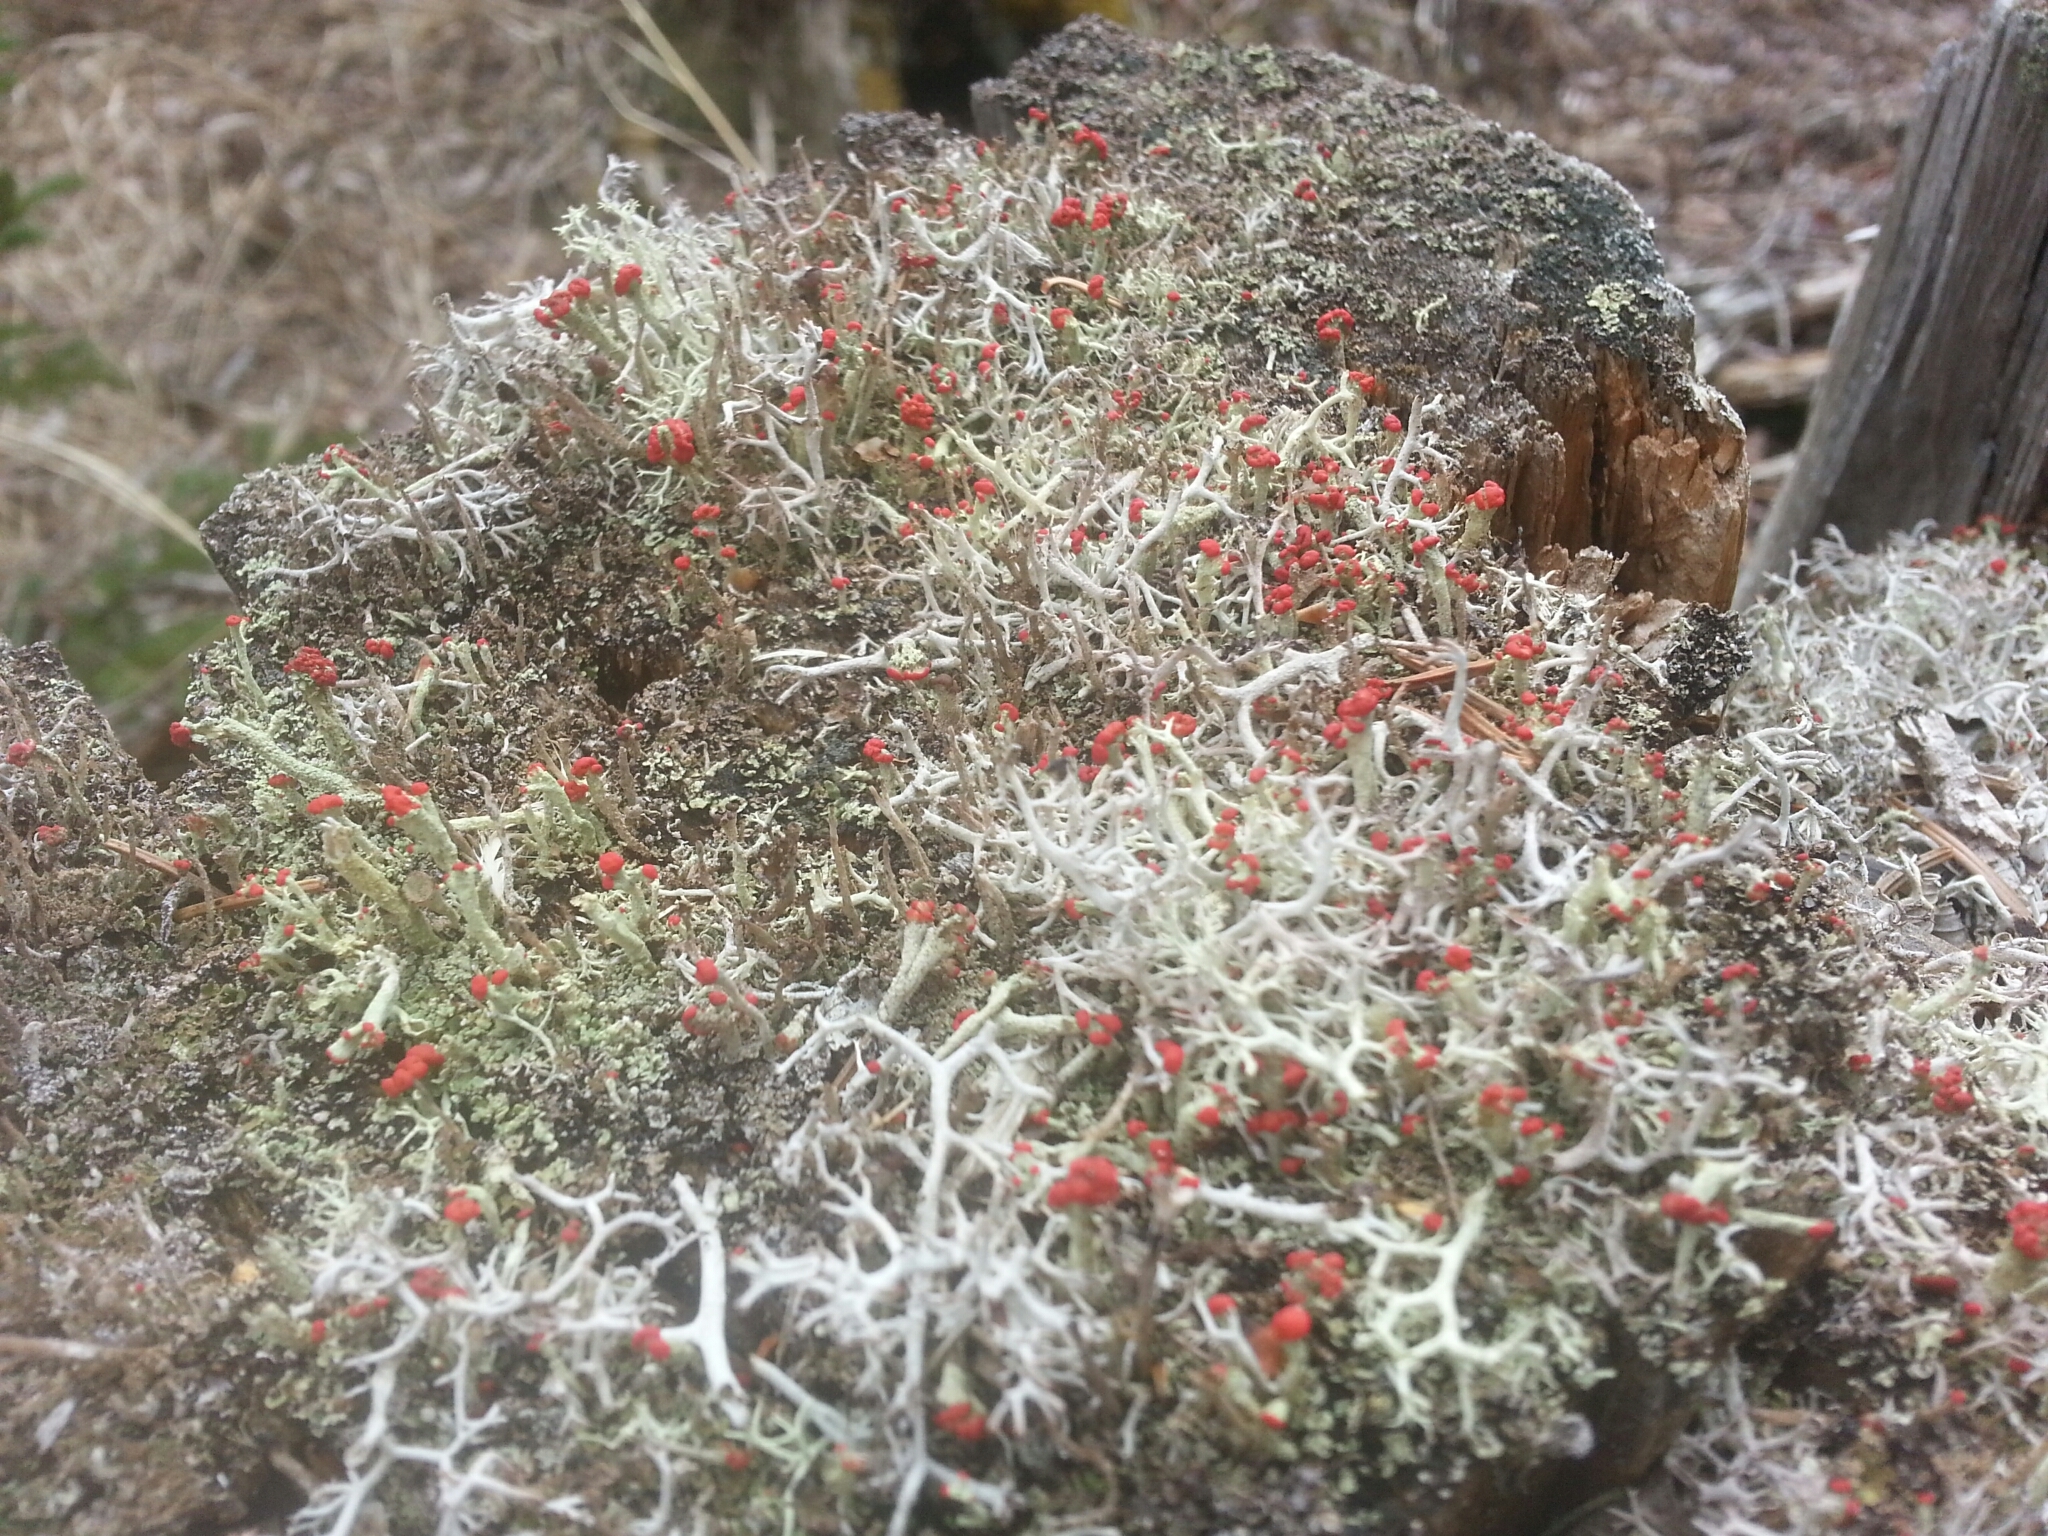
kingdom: Fungi
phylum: Ascomycota
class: Lecanoromycetes
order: Lecanorales
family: Cladoniaceae
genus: Cladonia
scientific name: Cladonia cristatella
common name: British soldier lichen
